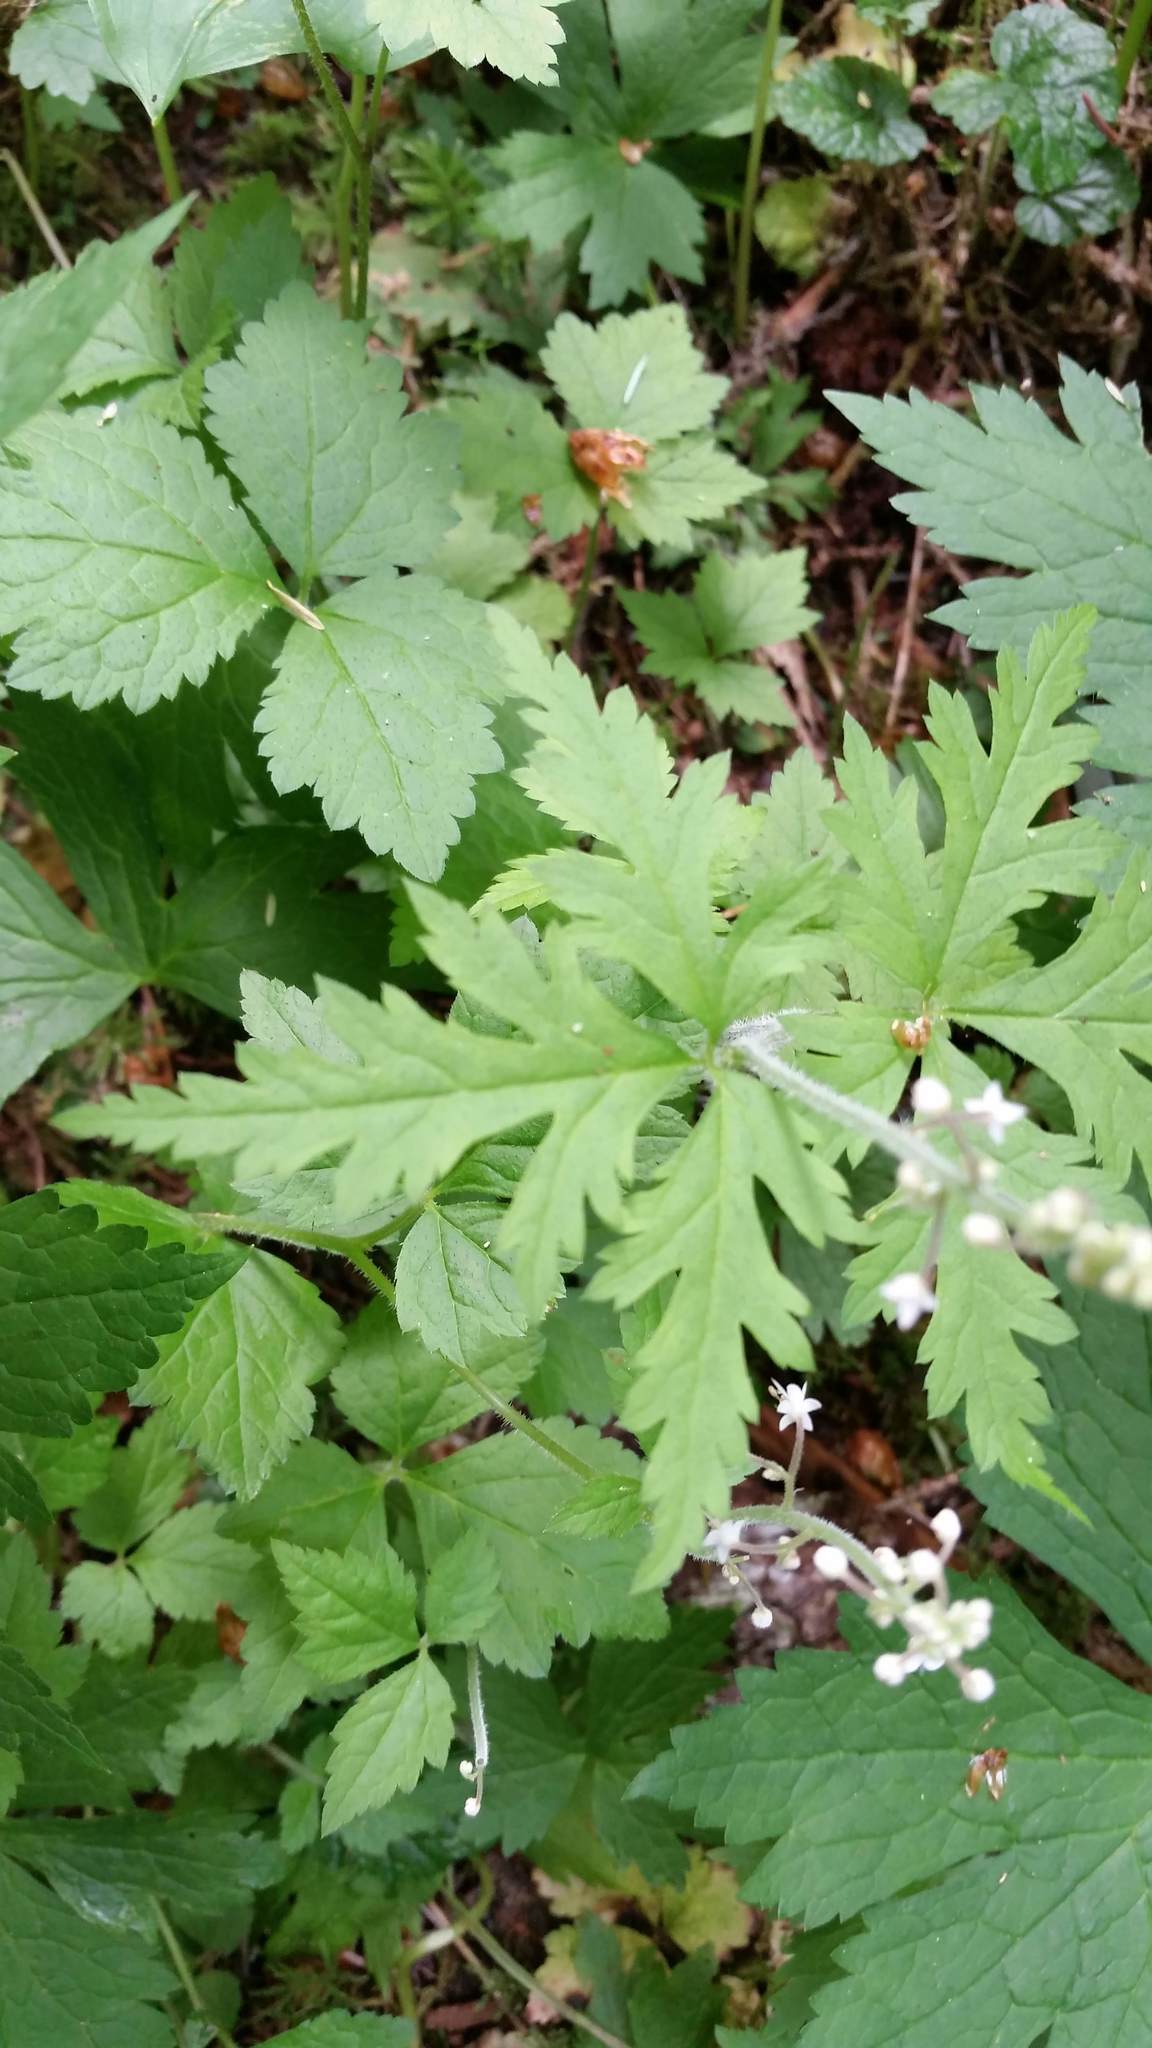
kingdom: Plantae
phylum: Tracheophyta
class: Magnoliopsida
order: Saxifragales
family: Saxifragaceae
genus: Tiarella
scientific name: Tiarella trifoliata
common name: Sugar-scoop
